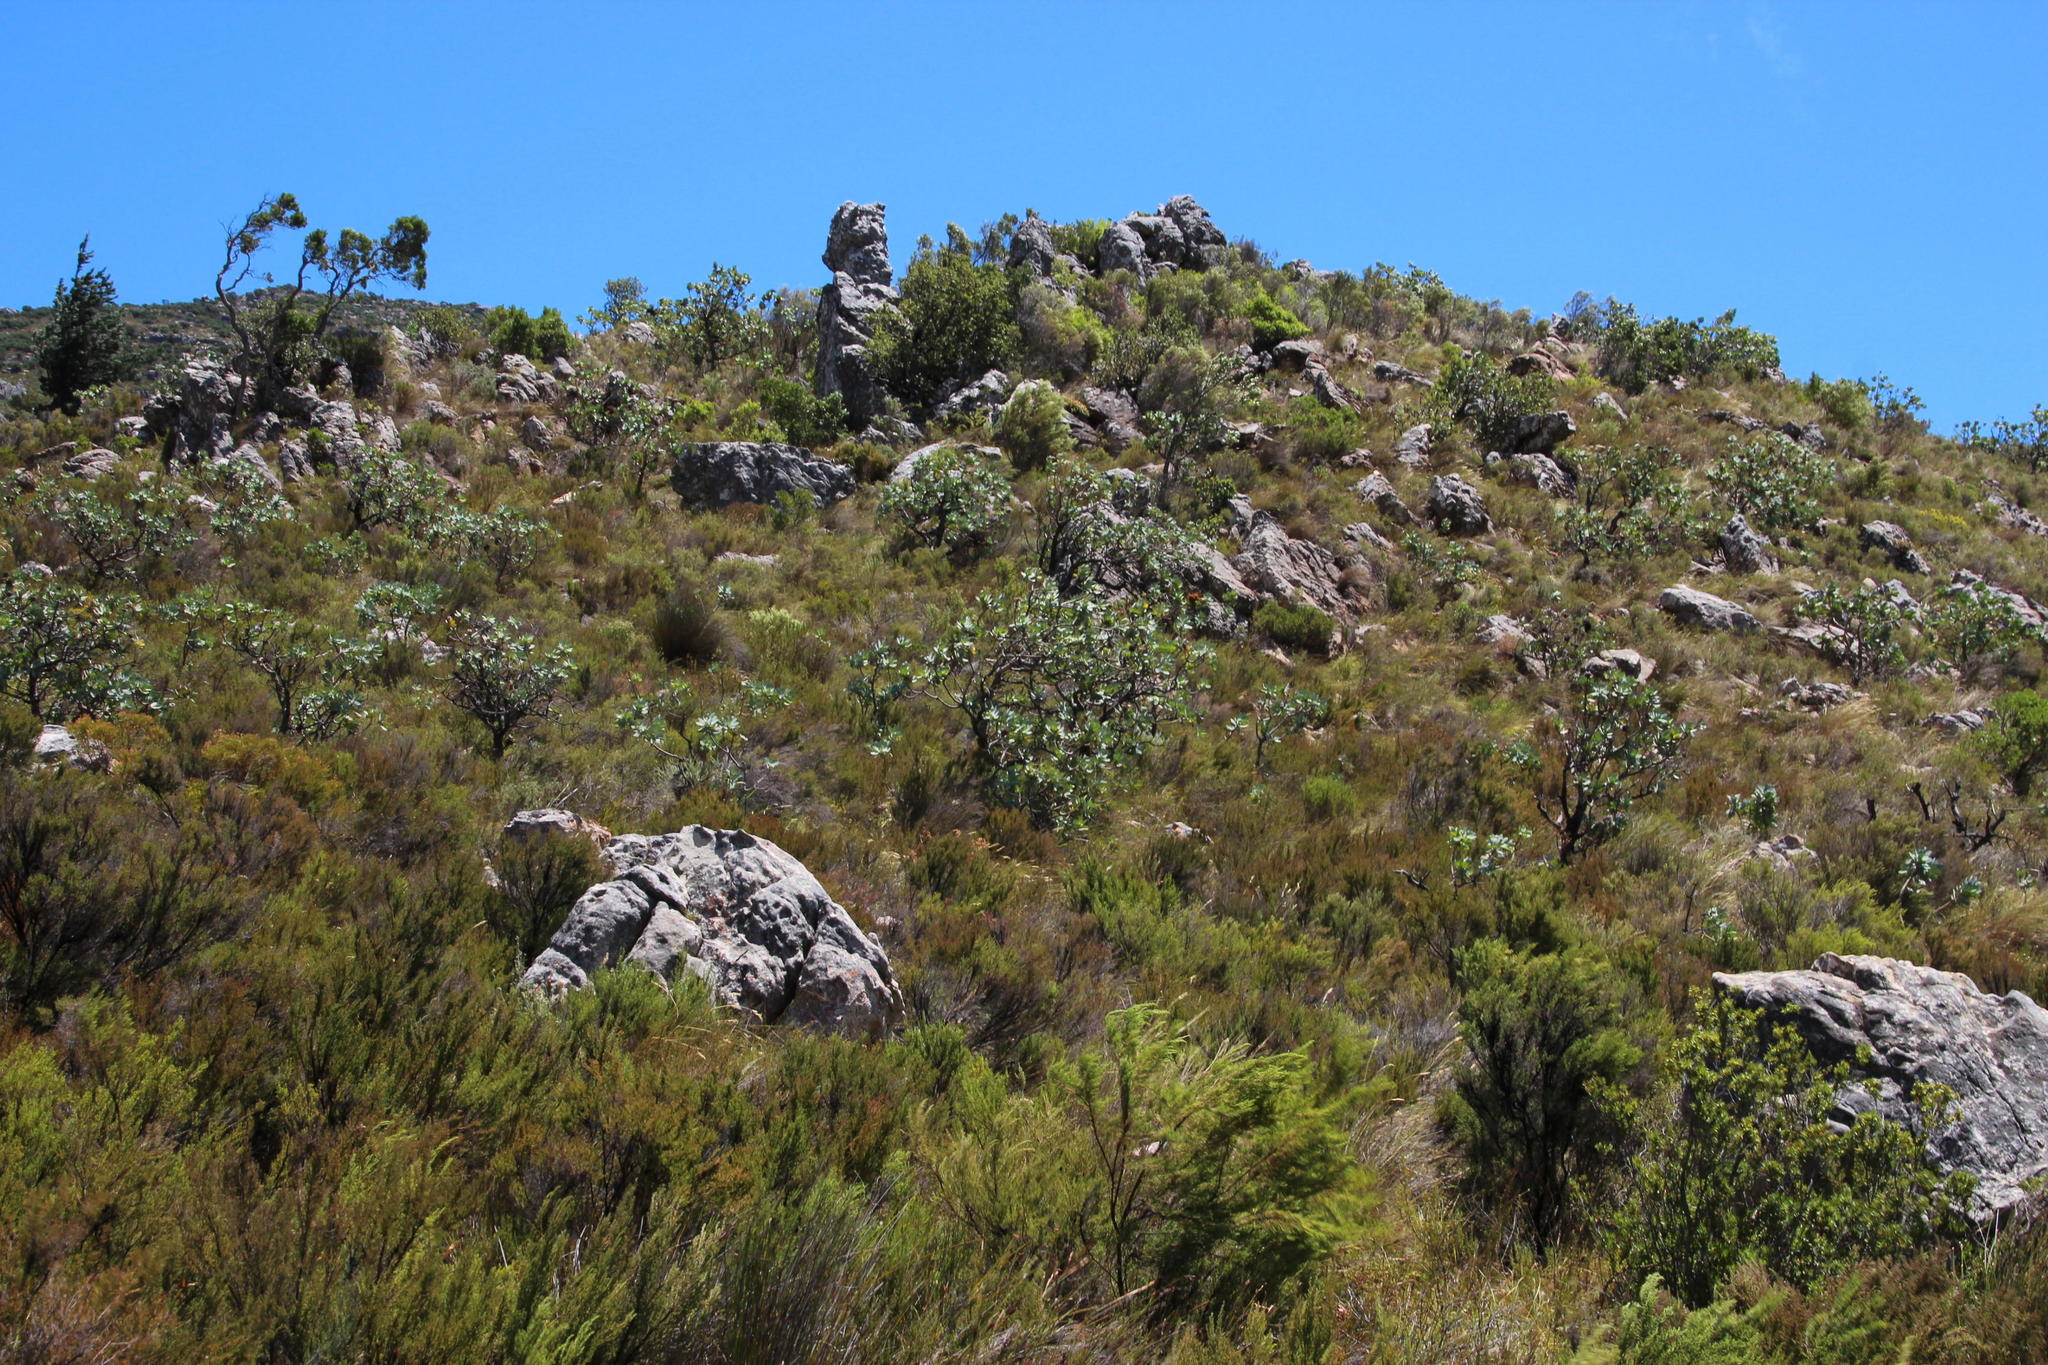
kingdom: Plantae
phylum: Tracheophyta
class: Magnoliopsida
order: Proteales
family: Proteaceae
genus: Protea
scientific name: Protea nitida
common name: Tree protea
